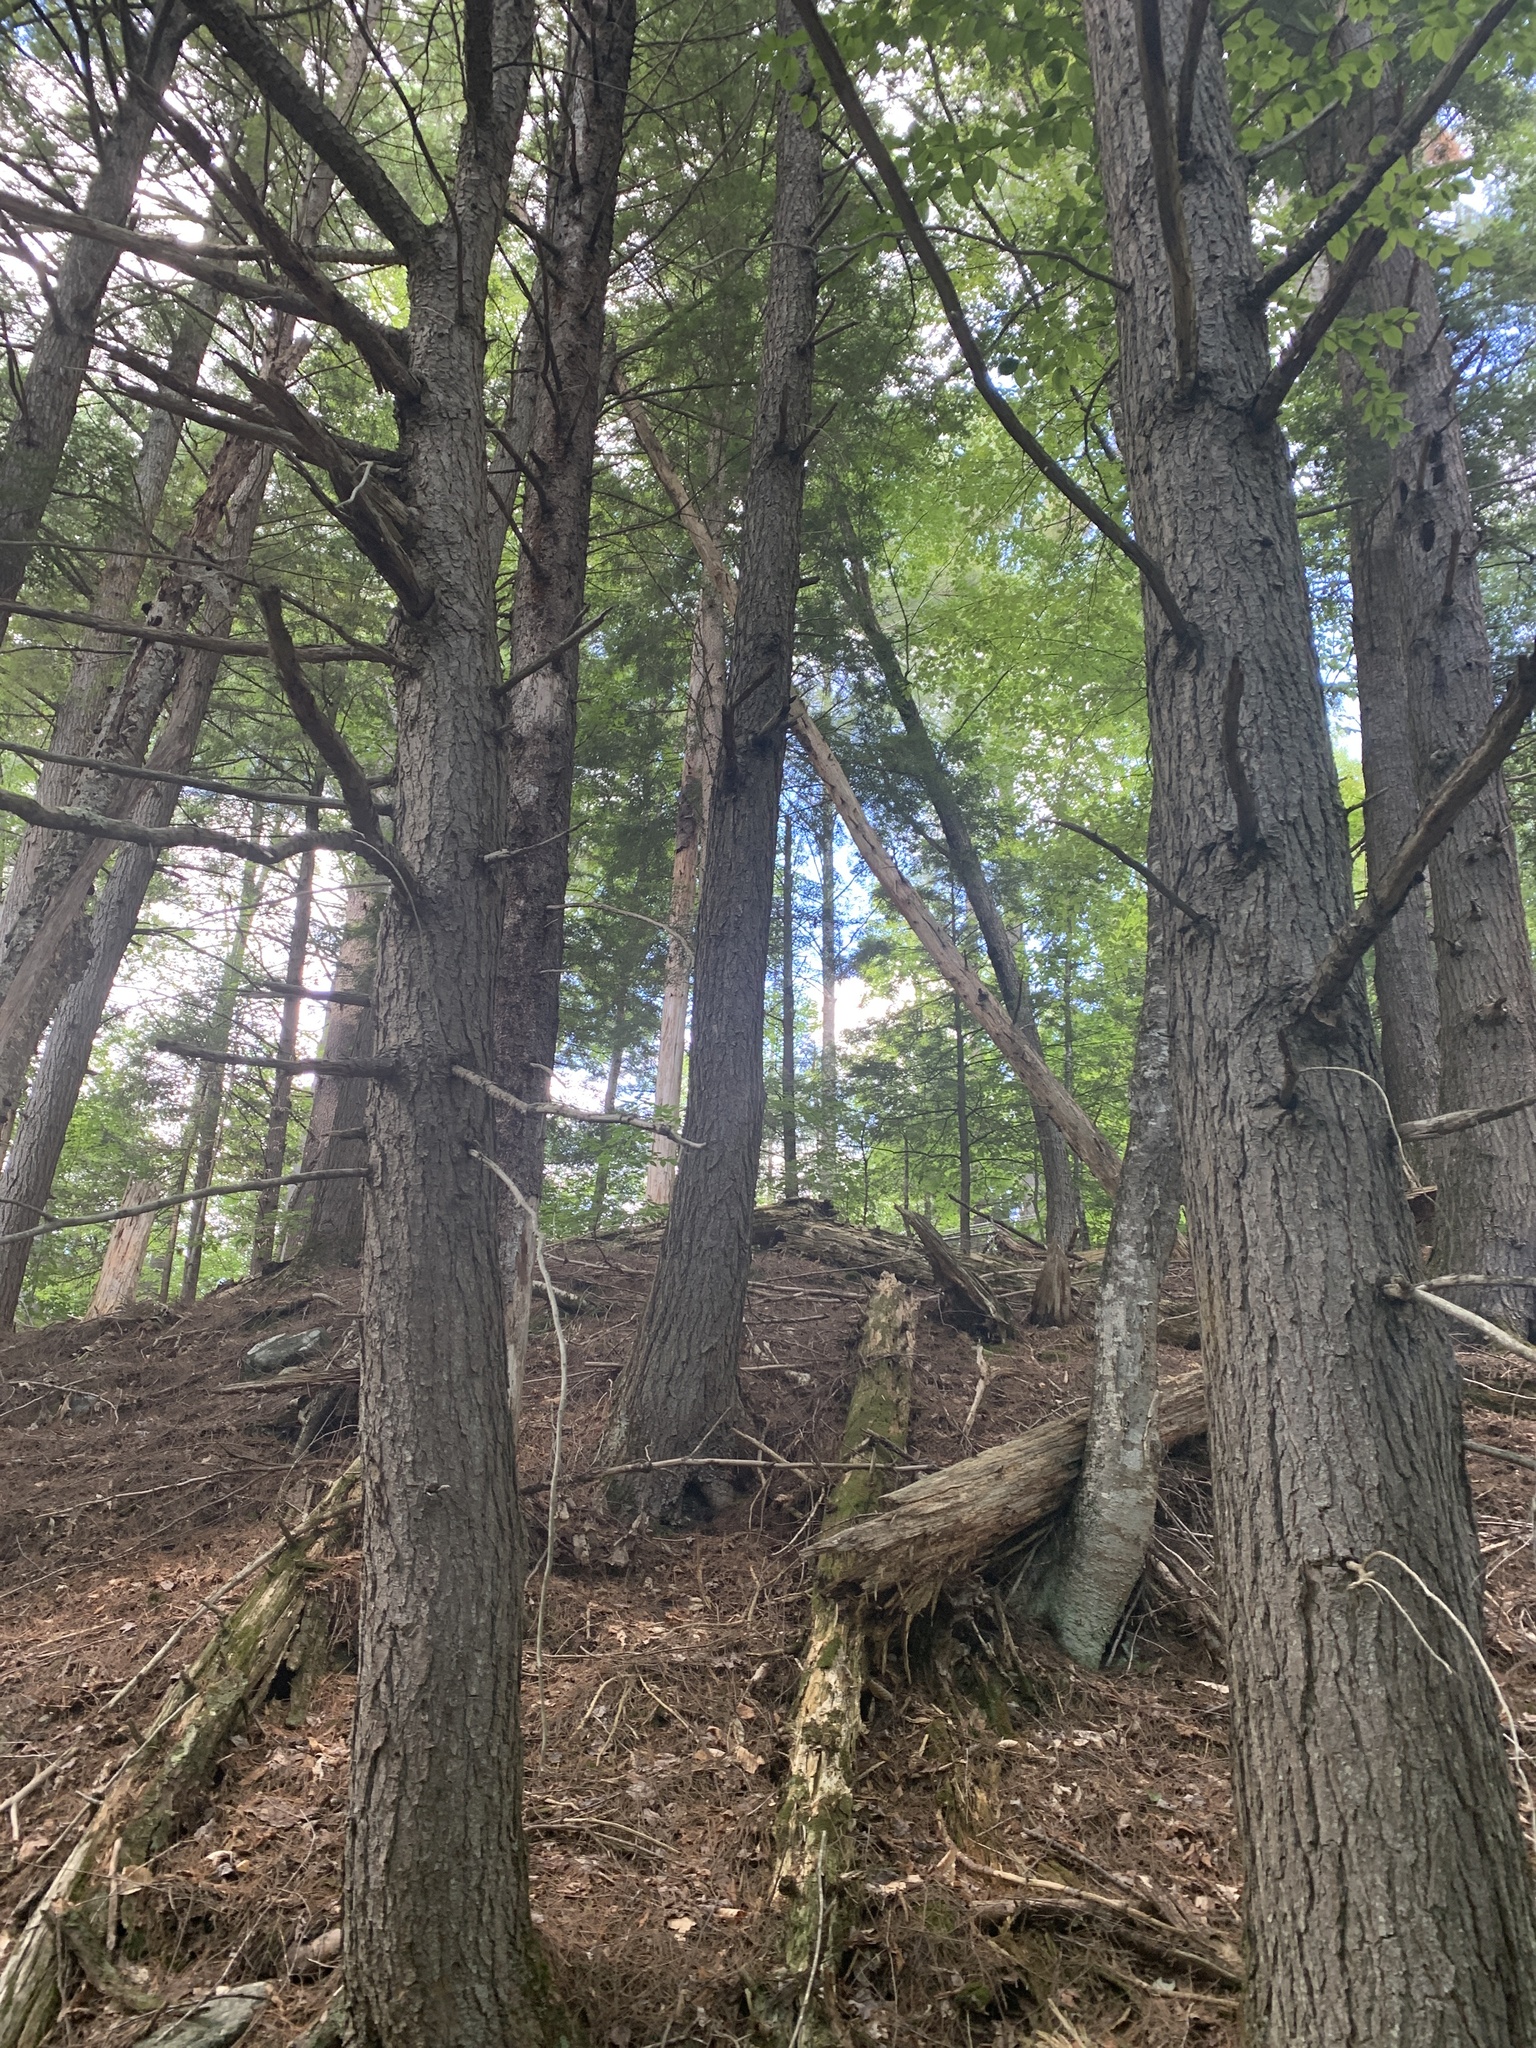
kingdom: Plantae
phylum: Tracheophyta
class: Pinopsida
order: Pinales
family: Pinaceae
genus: Tsuga
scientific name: Tsuga canadensis
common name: Eastern hemlock
